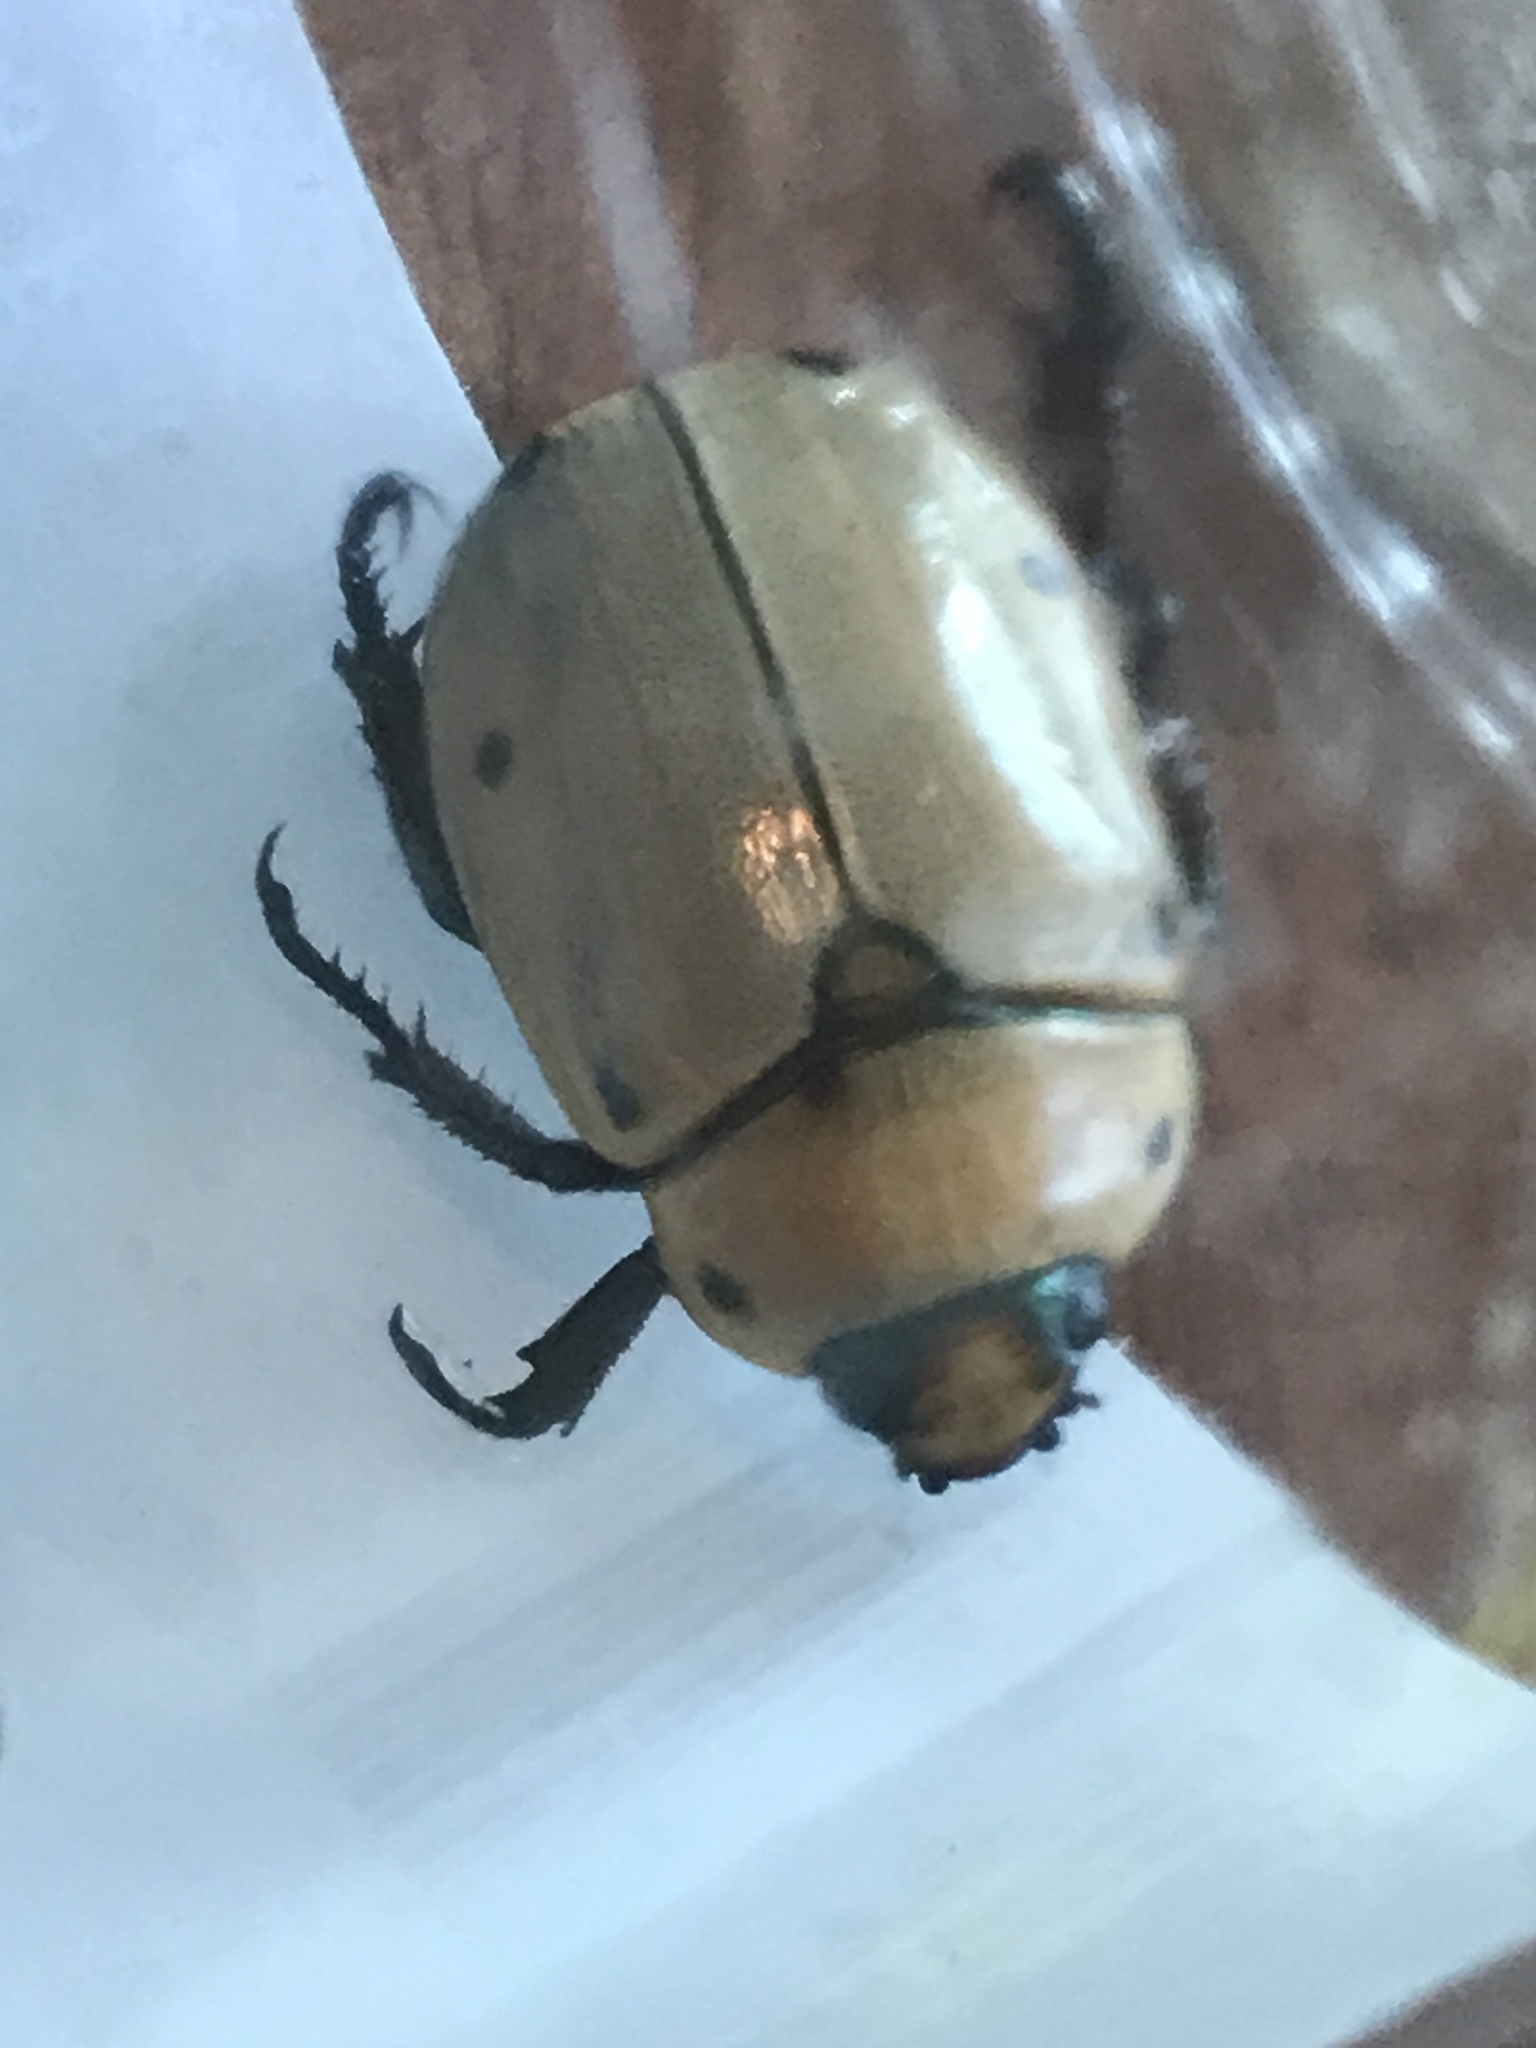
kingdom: Animalia
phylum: Arthropoda
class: Insecta
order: Coleoptera
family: Scarabaeidae
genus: Pelidnota
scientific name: Pelidnota punctata
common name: Grapevine beetle
